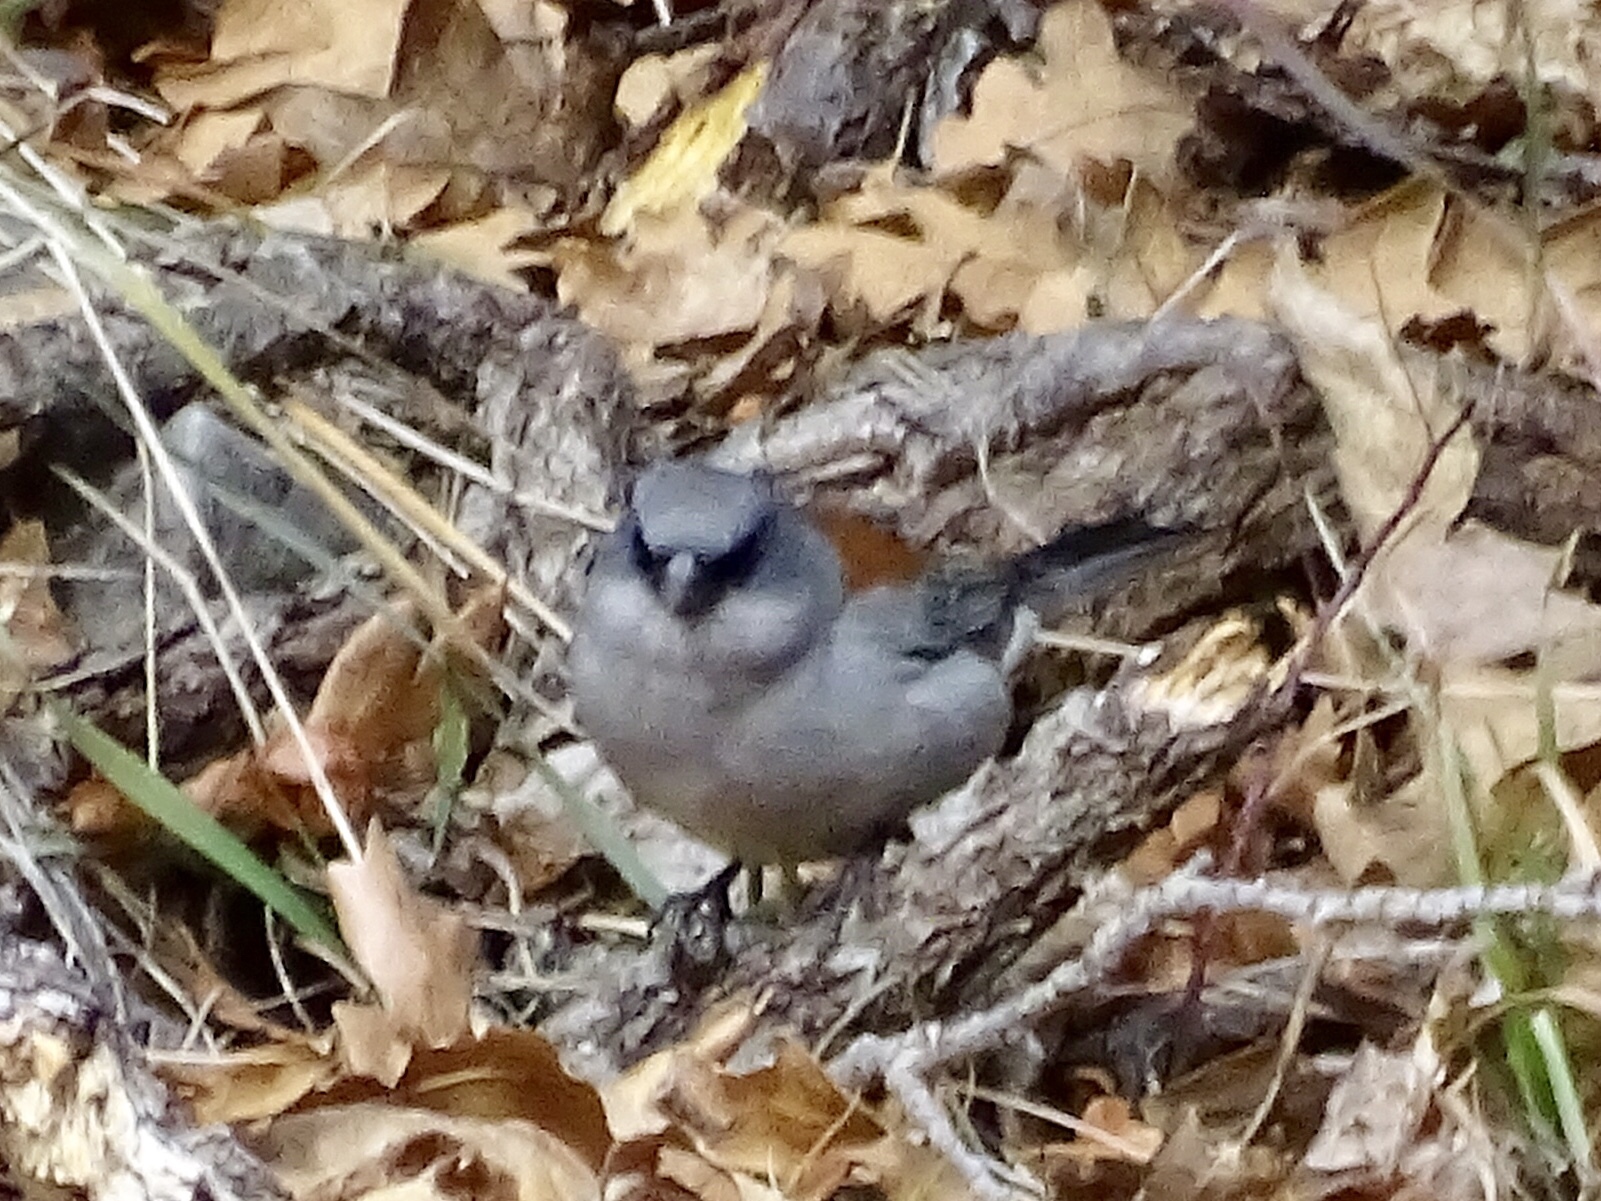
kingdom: Animalia
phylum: Chordata
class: Aves
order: Passeriformes
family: Passerellidae
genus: Junco
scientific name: Junco hyemalis
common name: Dark-eyed junco
